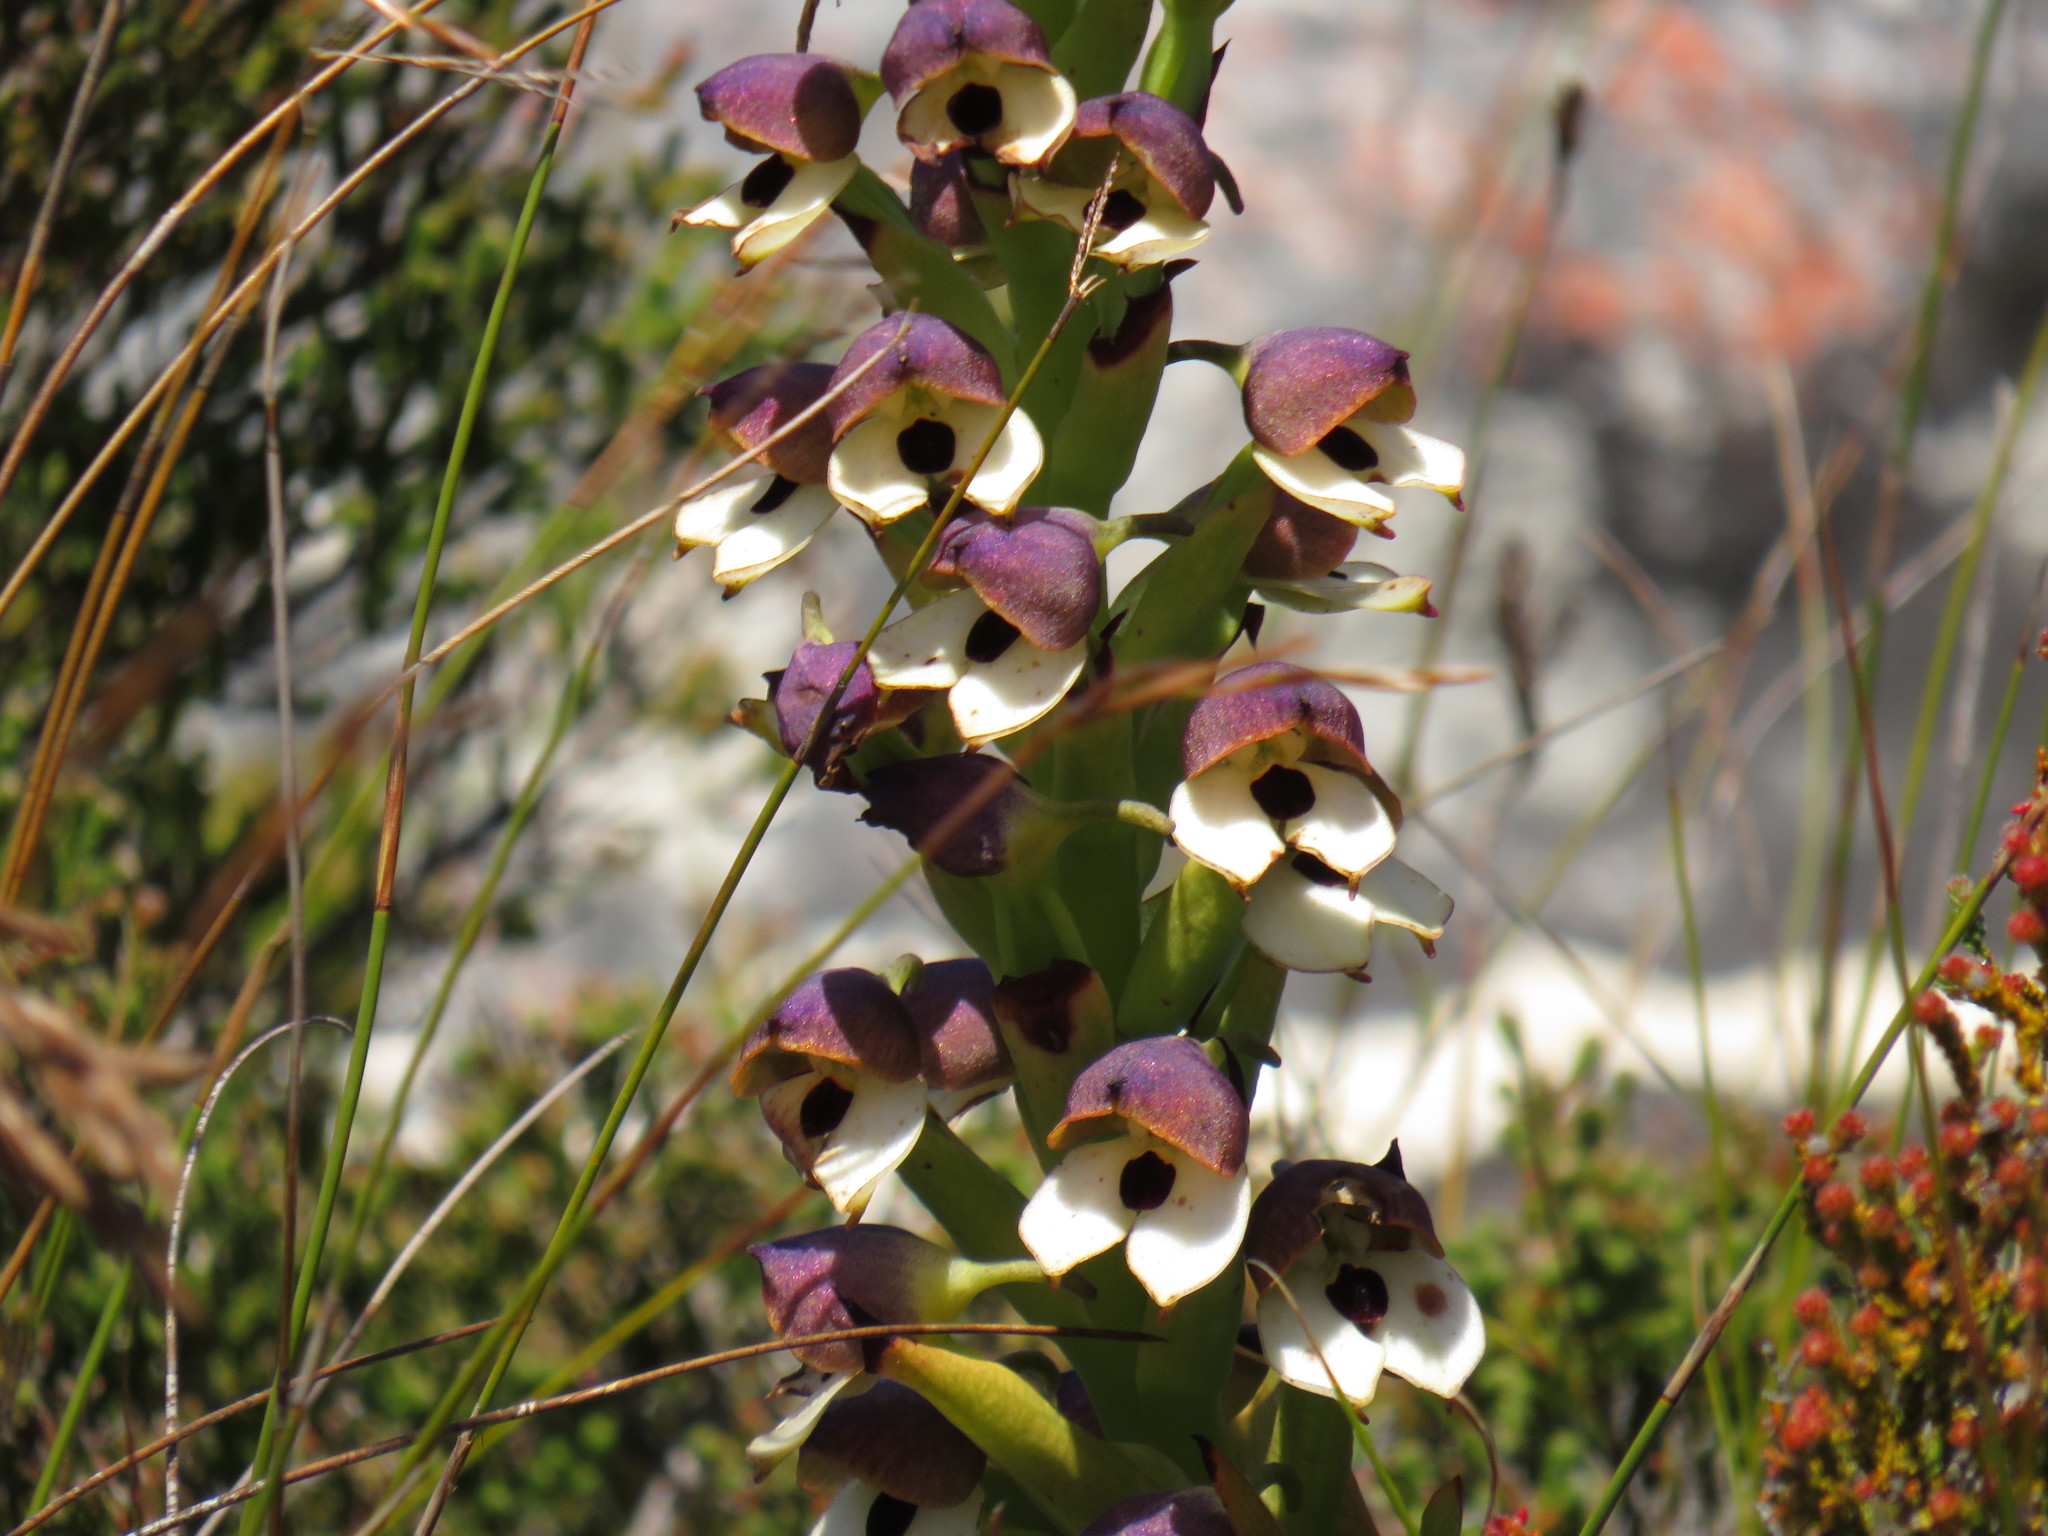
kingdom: Plantae
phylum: Tracheophyta
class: Liliopsida
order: Asparagales
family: Orchidaceae
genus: Disa
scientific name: Disa cornuta
